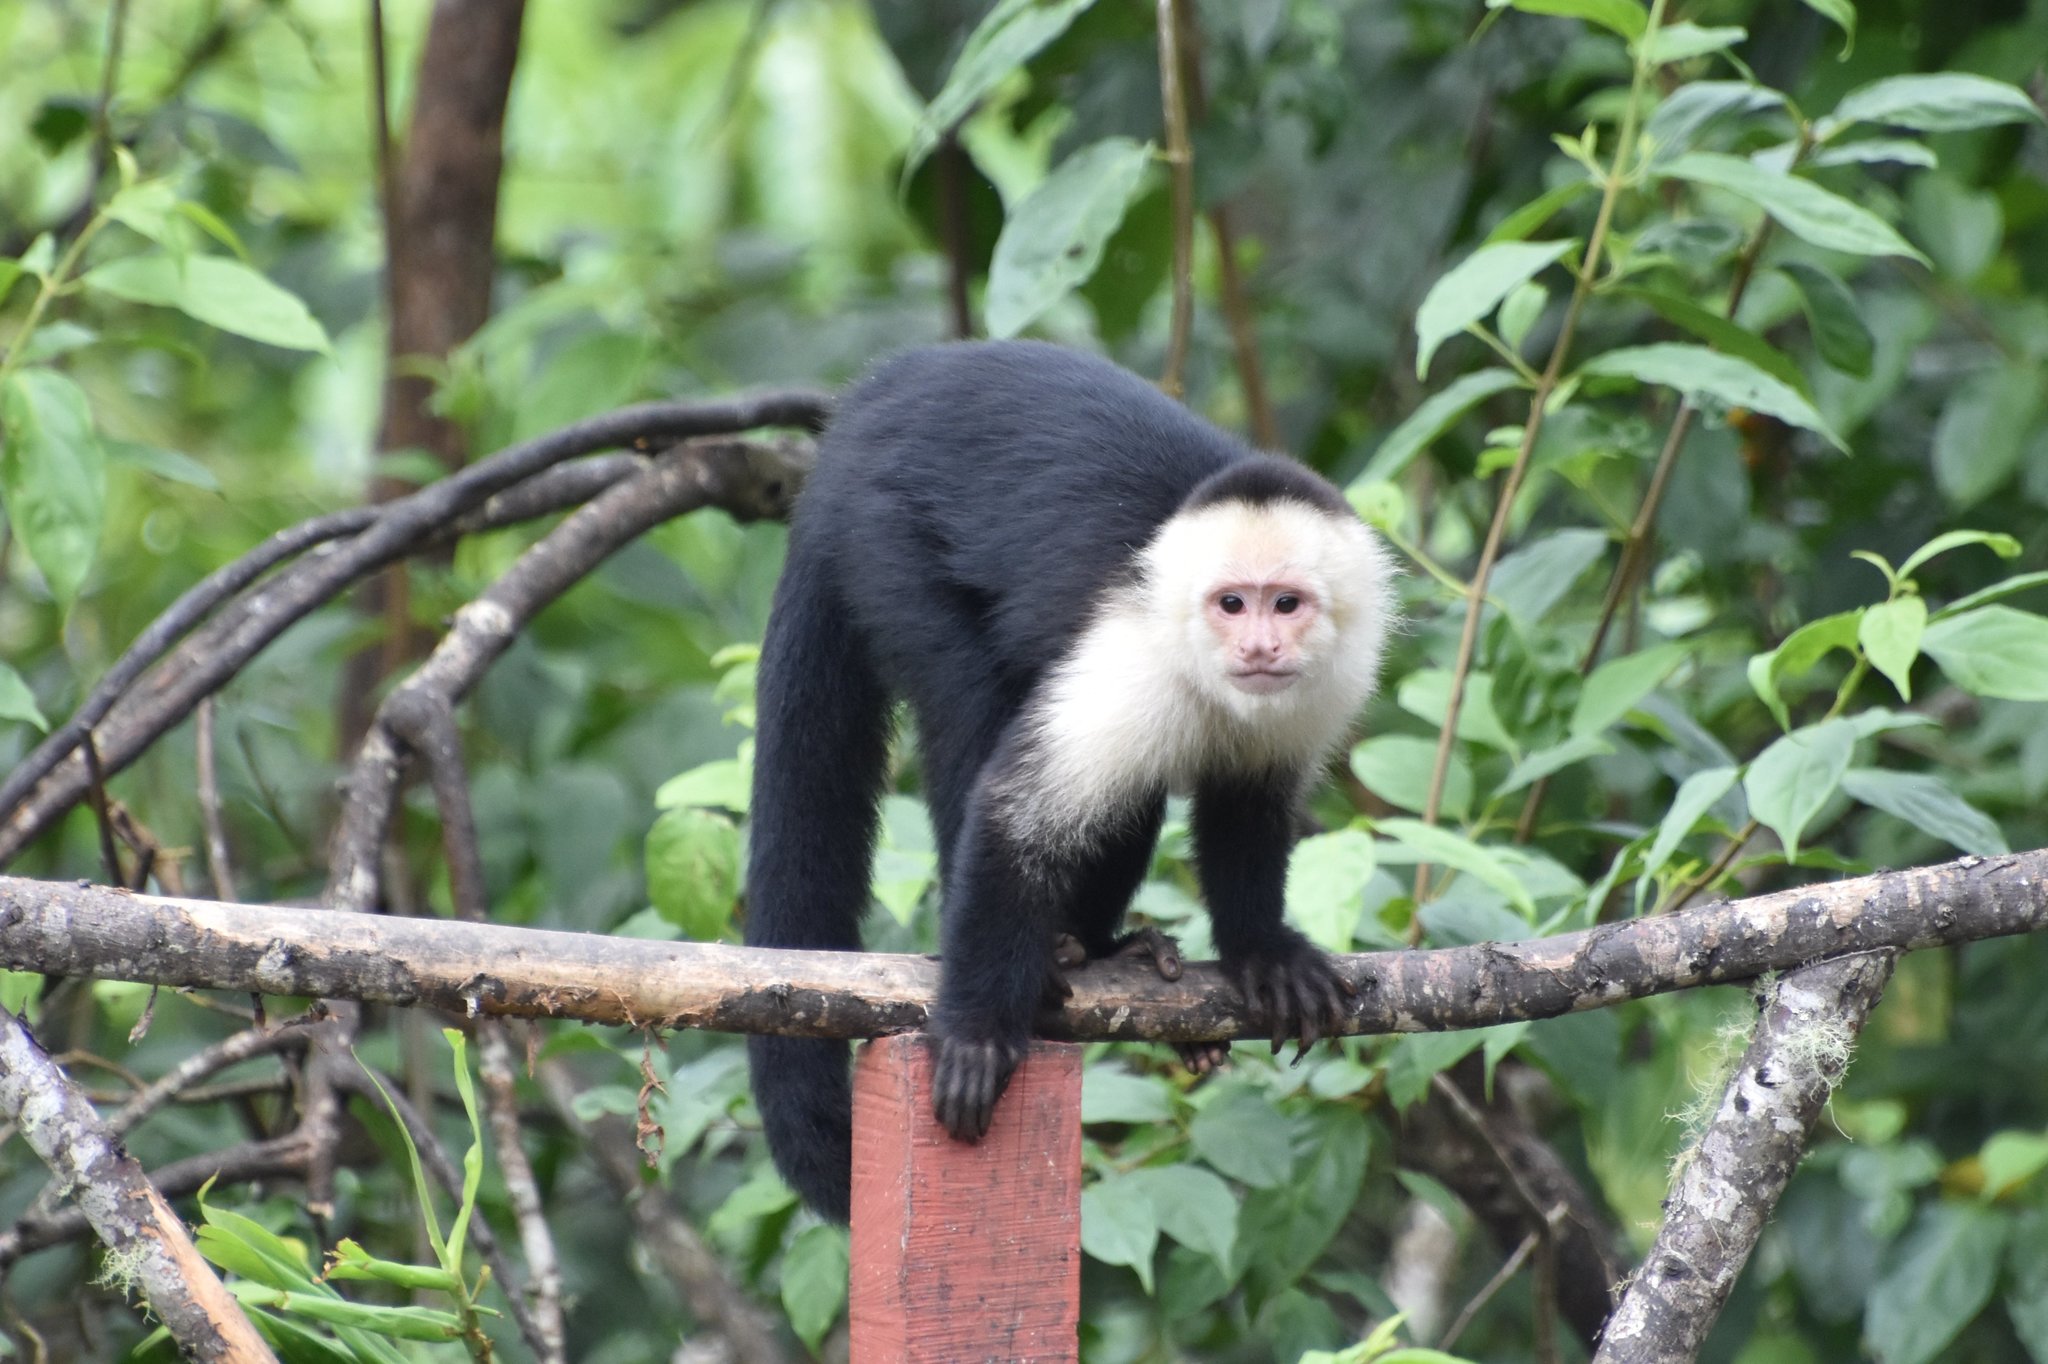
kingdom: Animalia
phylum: Chordata
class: Mammalia
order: Primates
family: Cebidae
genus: Cebus
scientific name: Cebus imitator
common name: Panamanian white-faced capuchin
